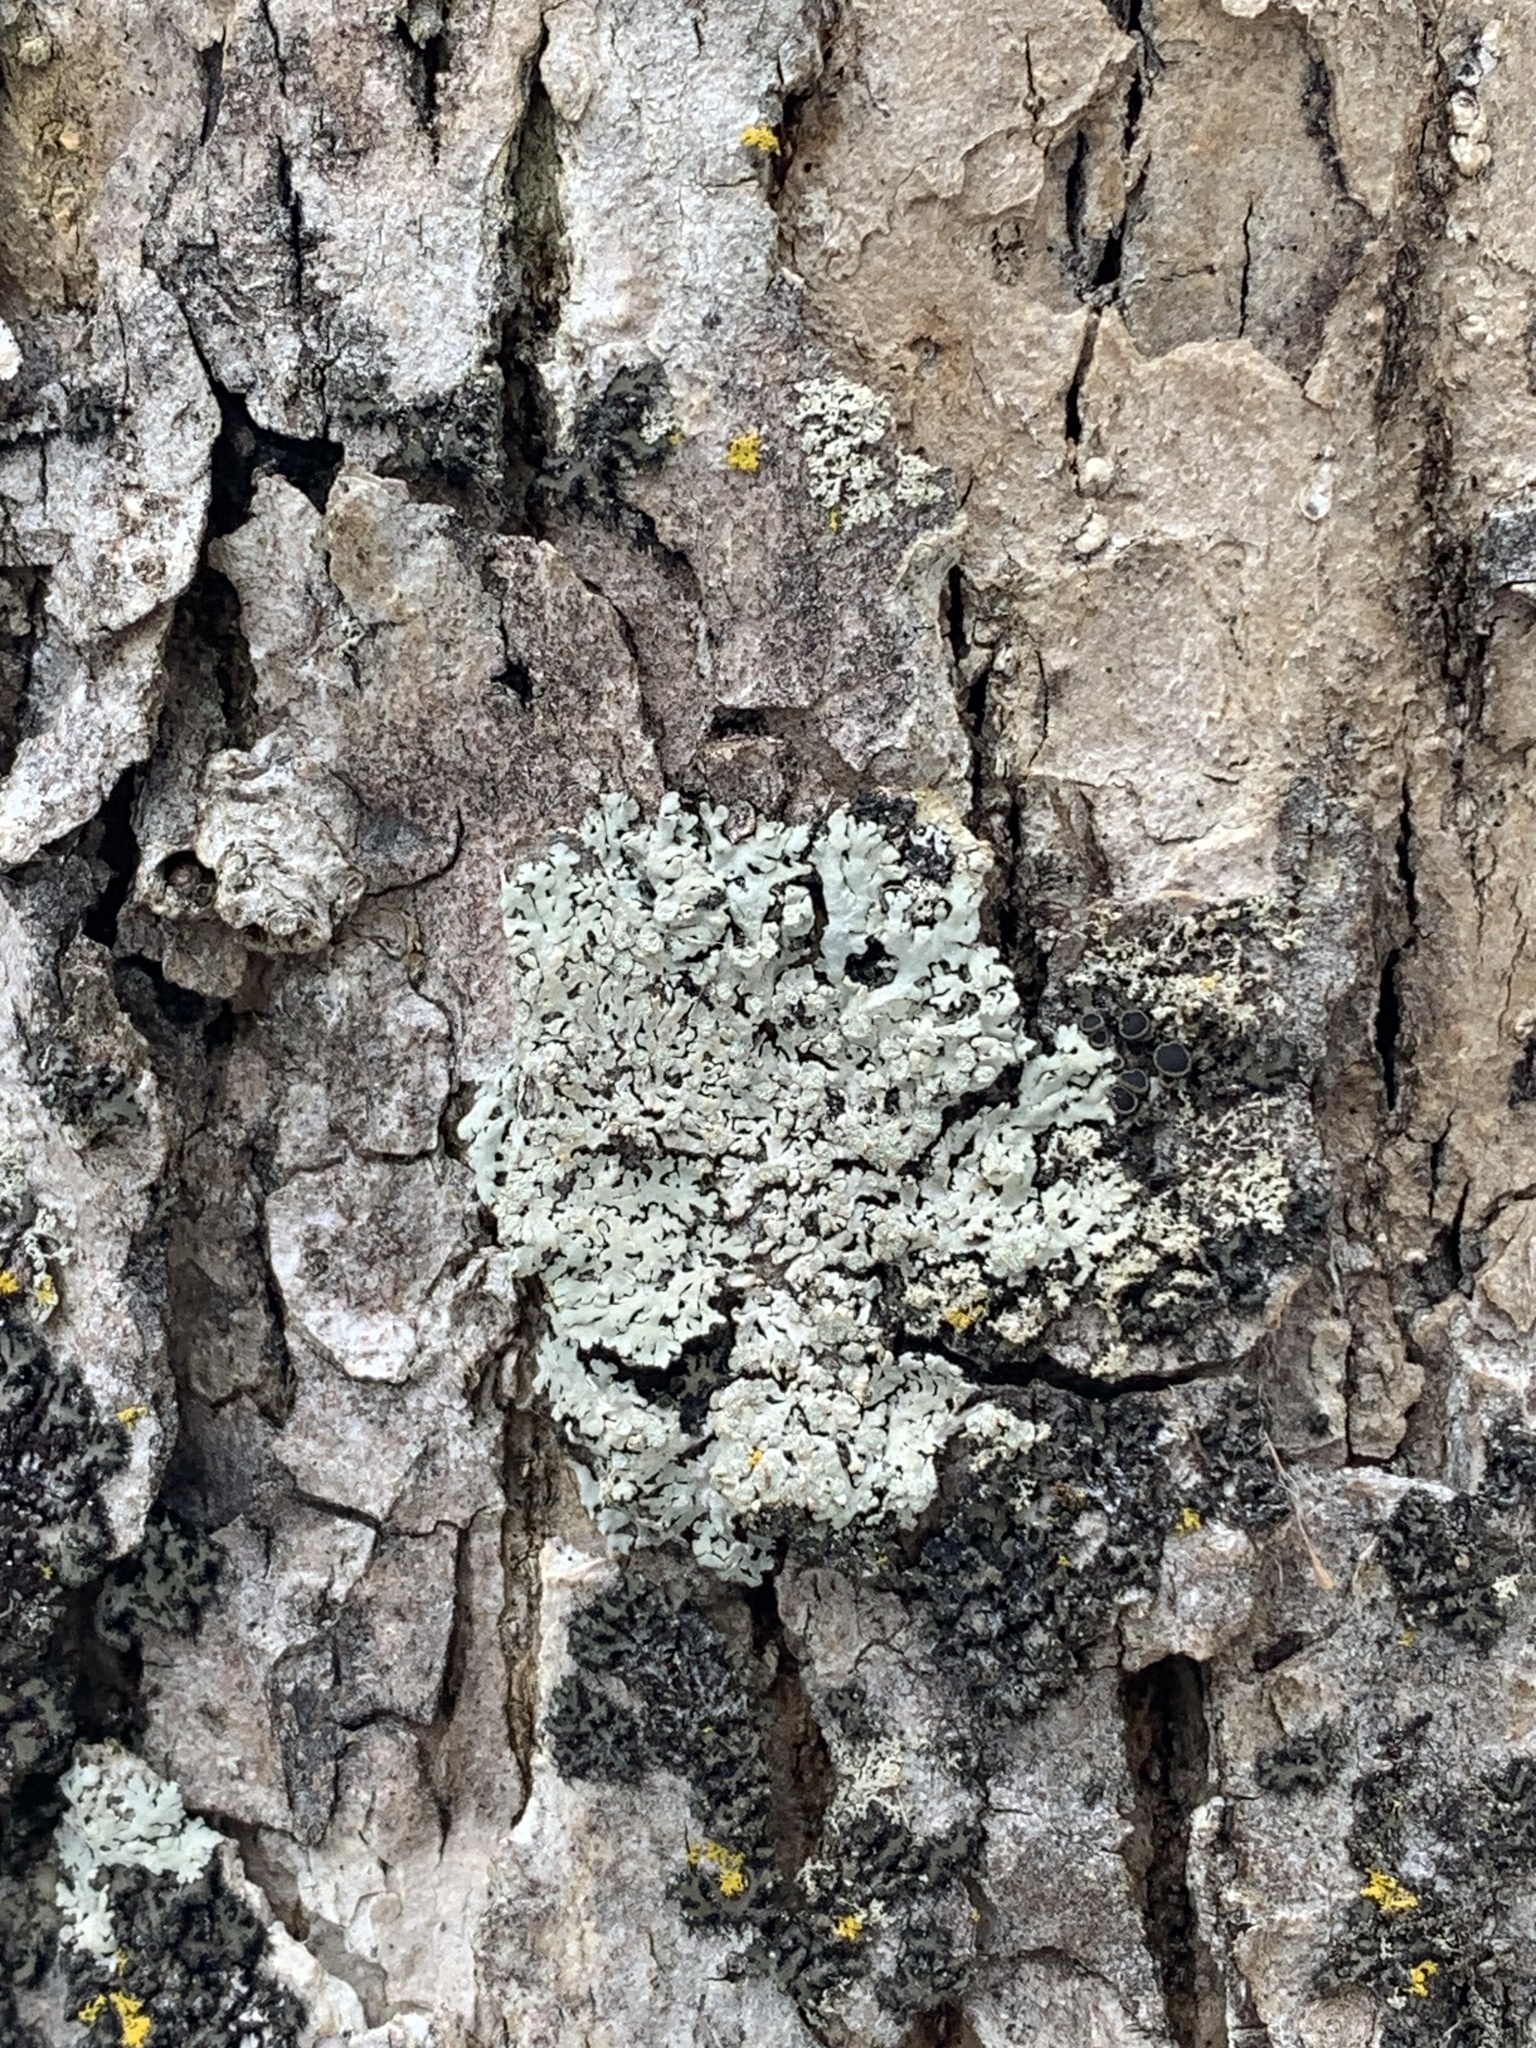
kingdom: Fungi
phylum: Ascomycota
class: Lecanoromycetes
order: Caliciales
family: Physciaceae
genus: Physcia
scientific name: Physcia americana
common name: American rosette lichen
